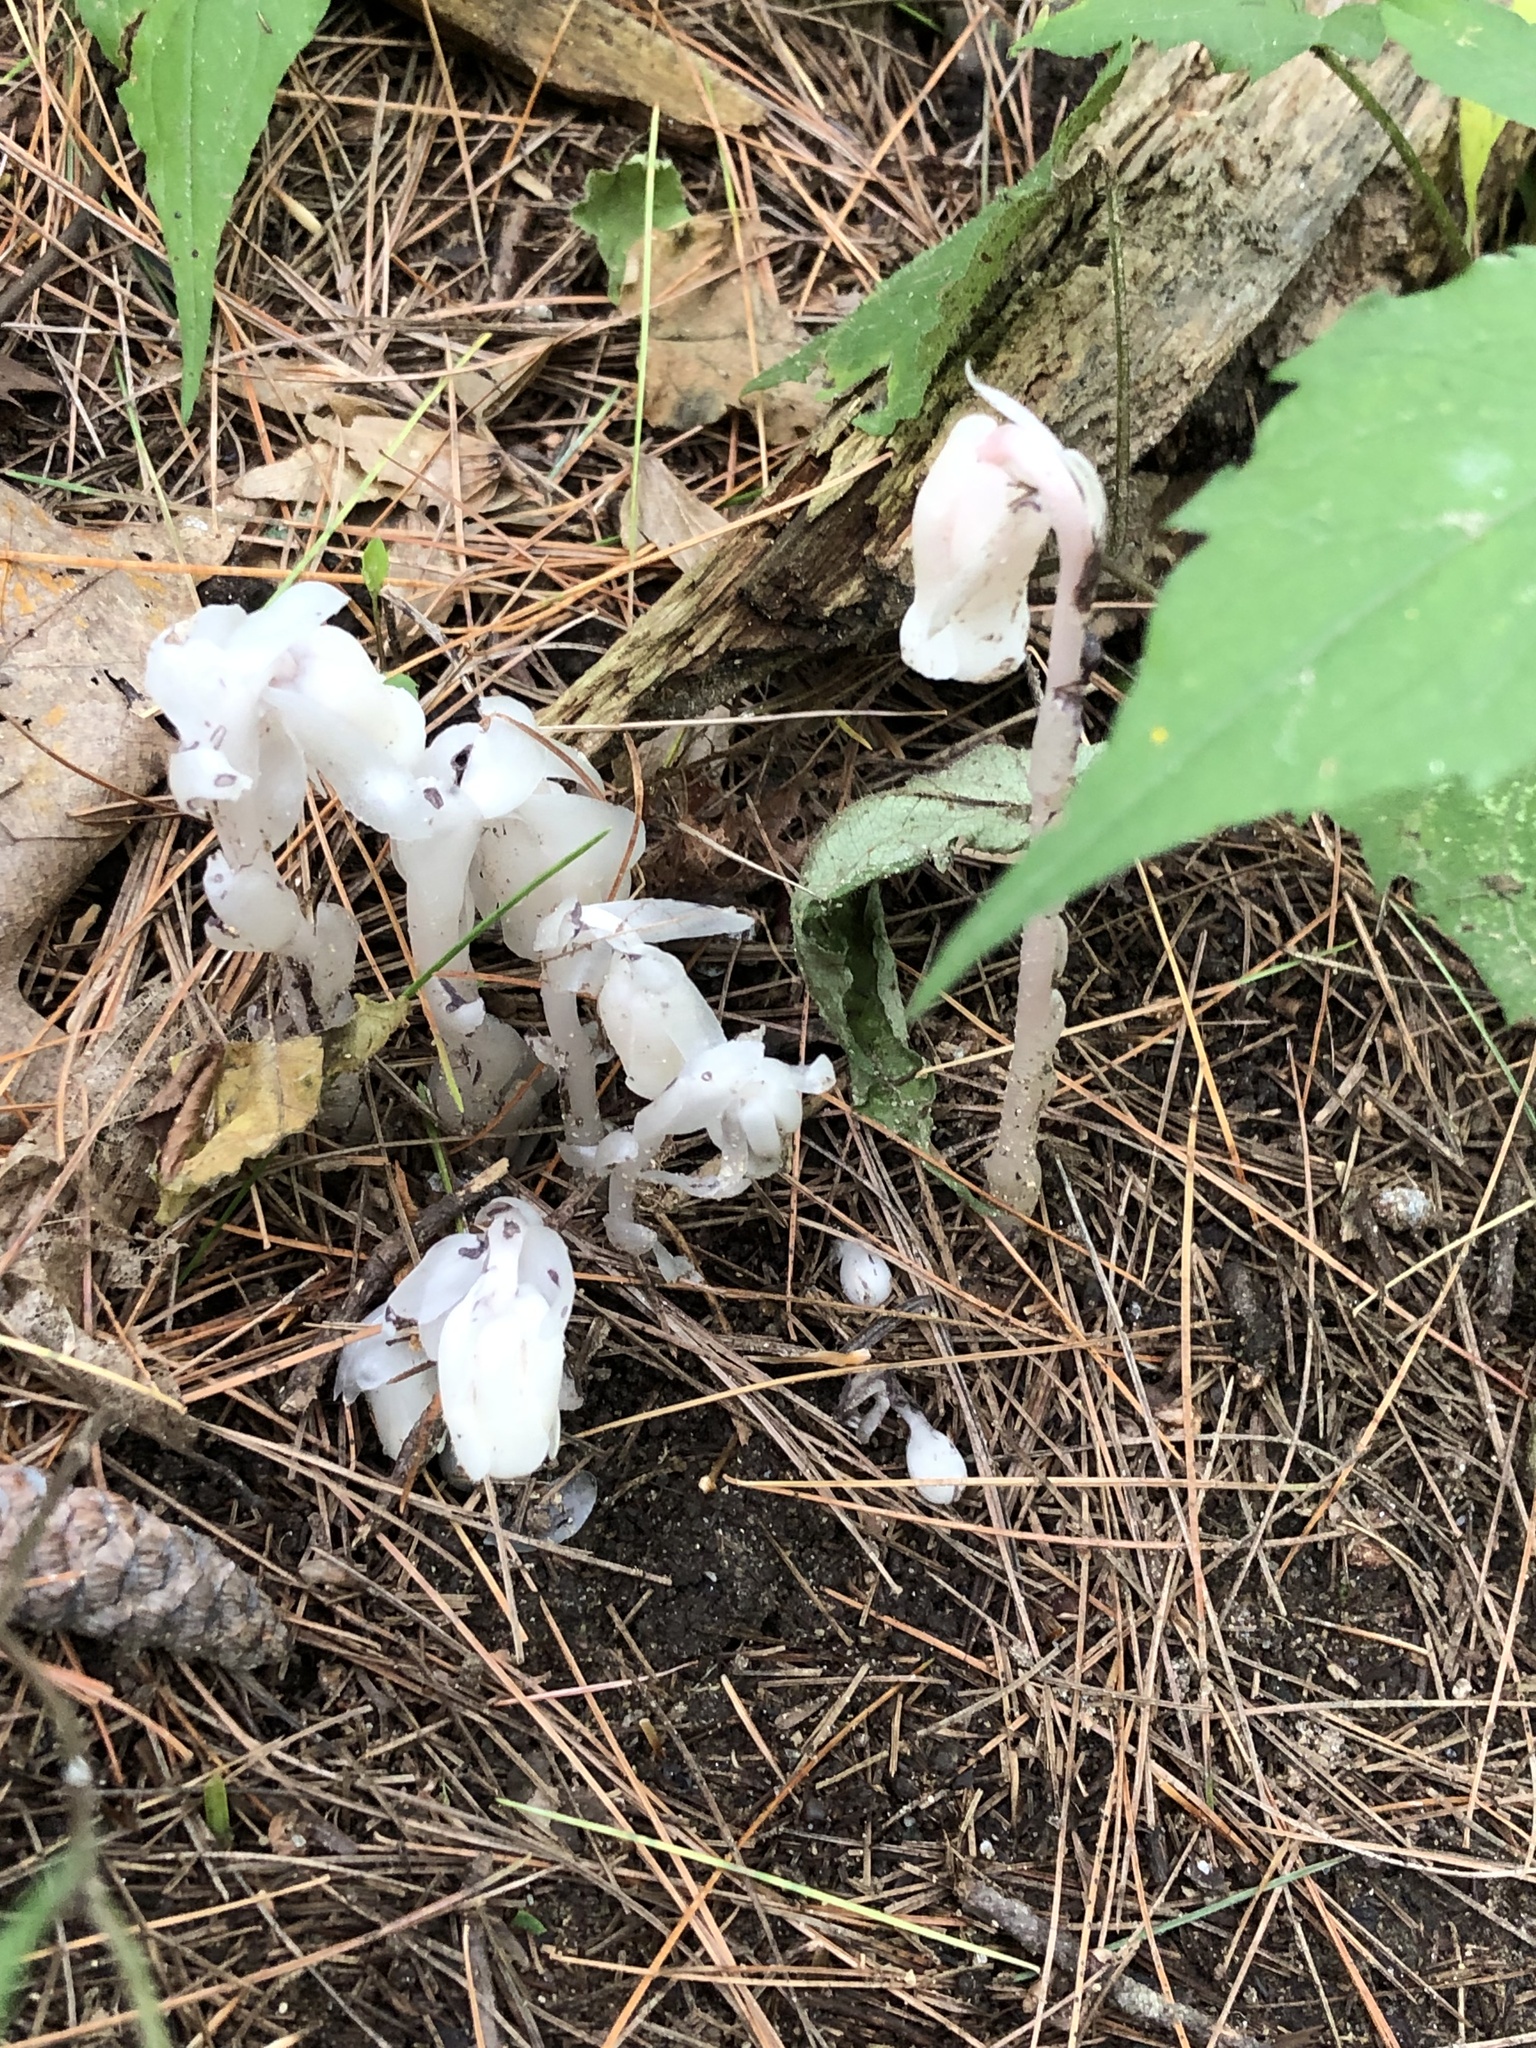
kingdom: Plantae
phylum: Tracheophyta
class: Magnoliopsida
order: Ericales
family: Ericaceae
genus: Monotropa
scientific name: Monotropa uniflora
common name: Convulsion root
